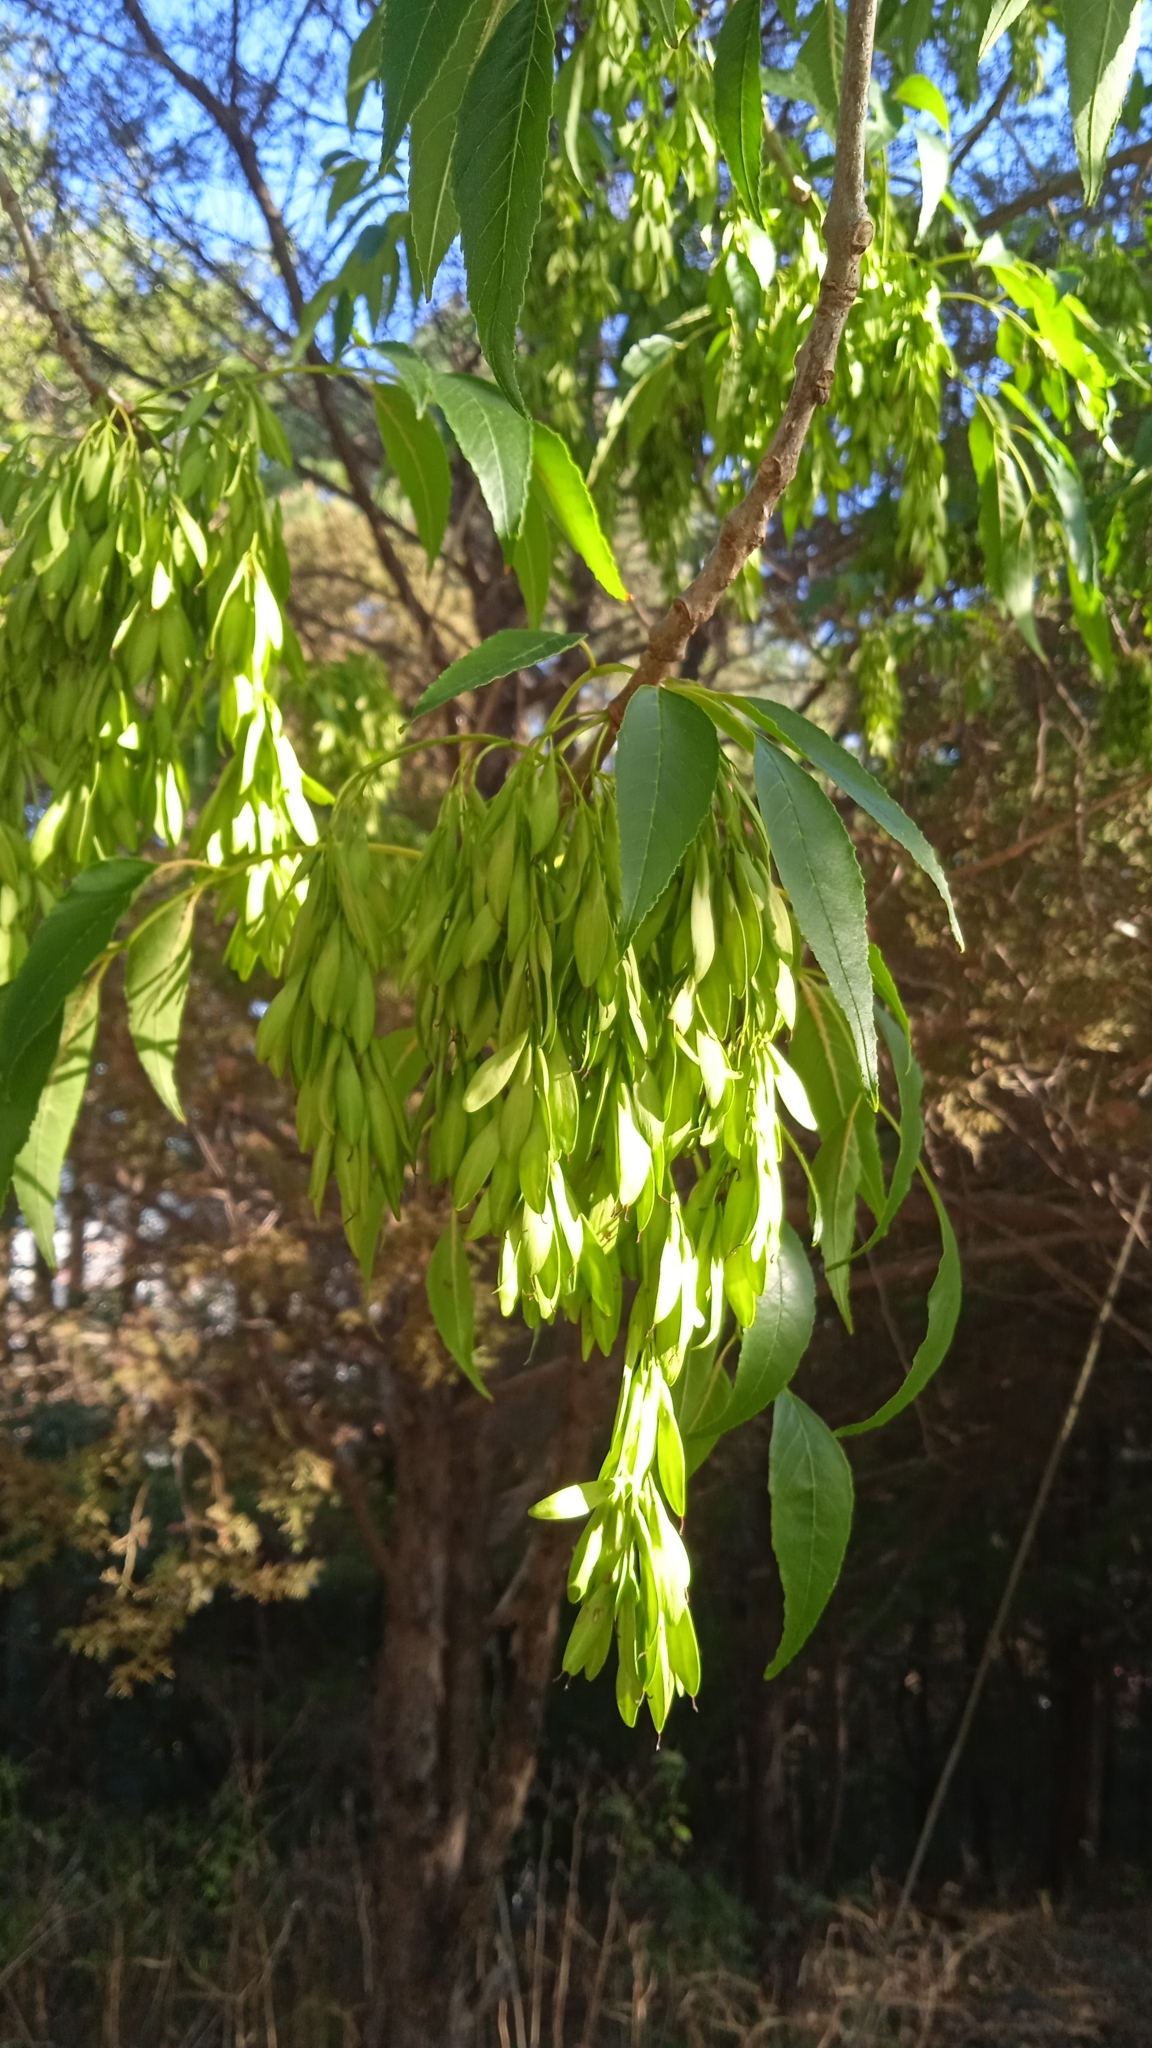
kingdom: Plantae
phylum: Tracheophyta
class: Magnoliopsida
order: Lamiales
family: Oleaceae
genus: Fraxinus
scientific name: Fraxinus velutina
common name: Arizon ash
